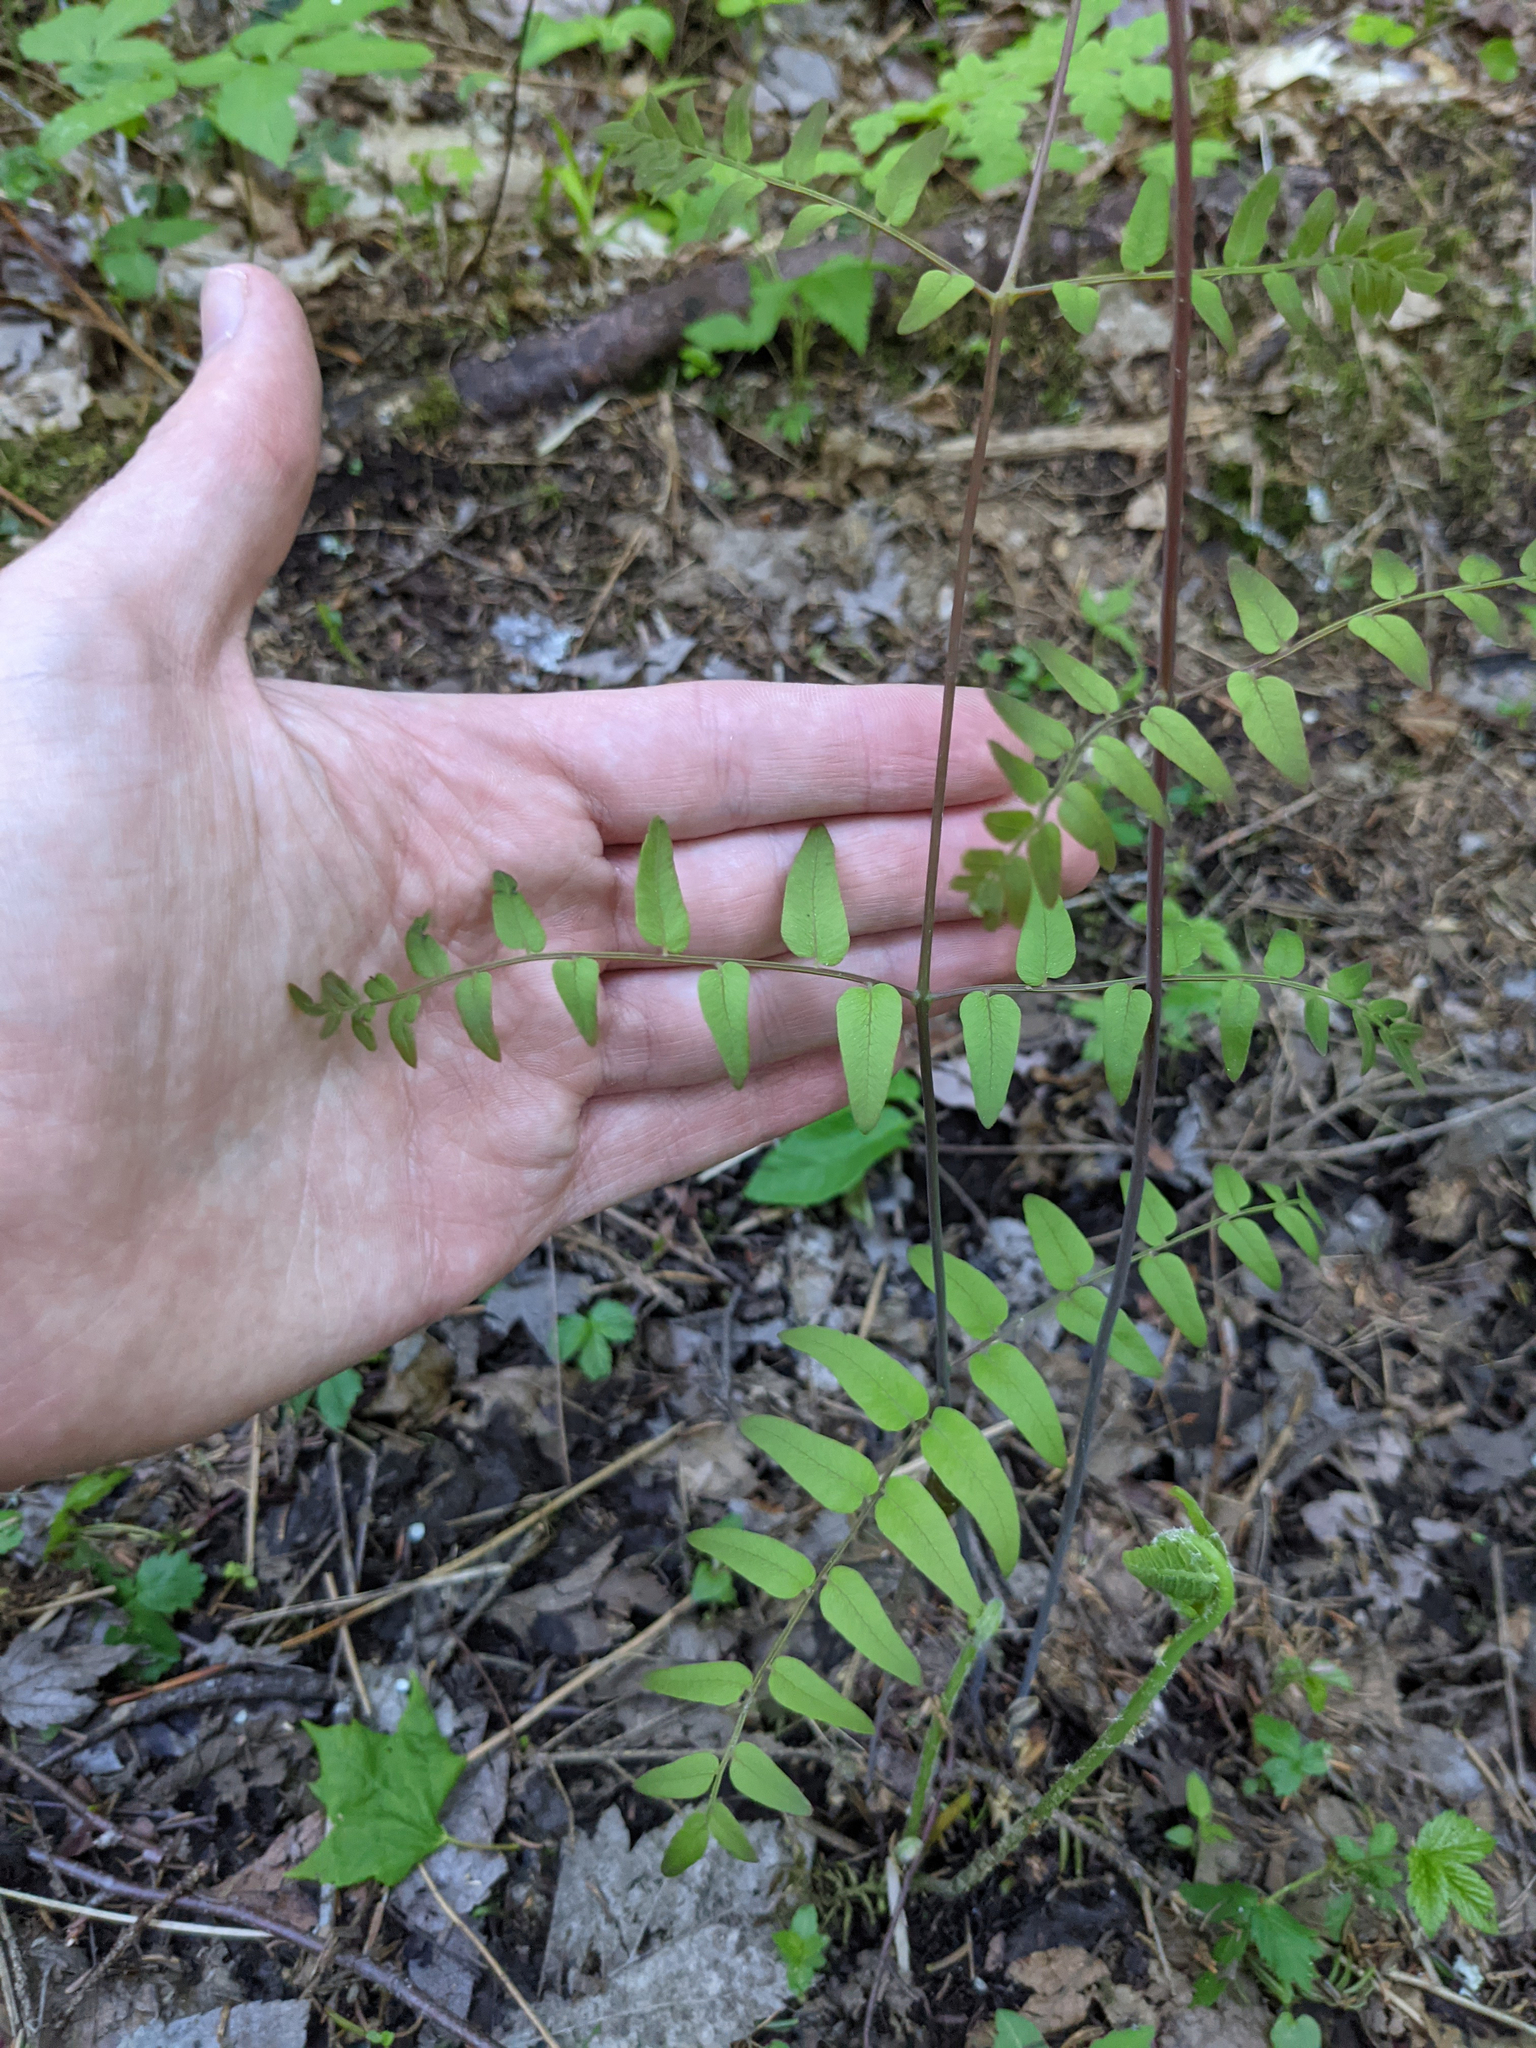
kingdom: Plantae
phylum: Tracheophyta
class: Polypodiopsida
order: Osmundales
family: Osmundaceae
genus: Osmunda
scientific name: Osmunda spectabilis
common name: American royal fern
